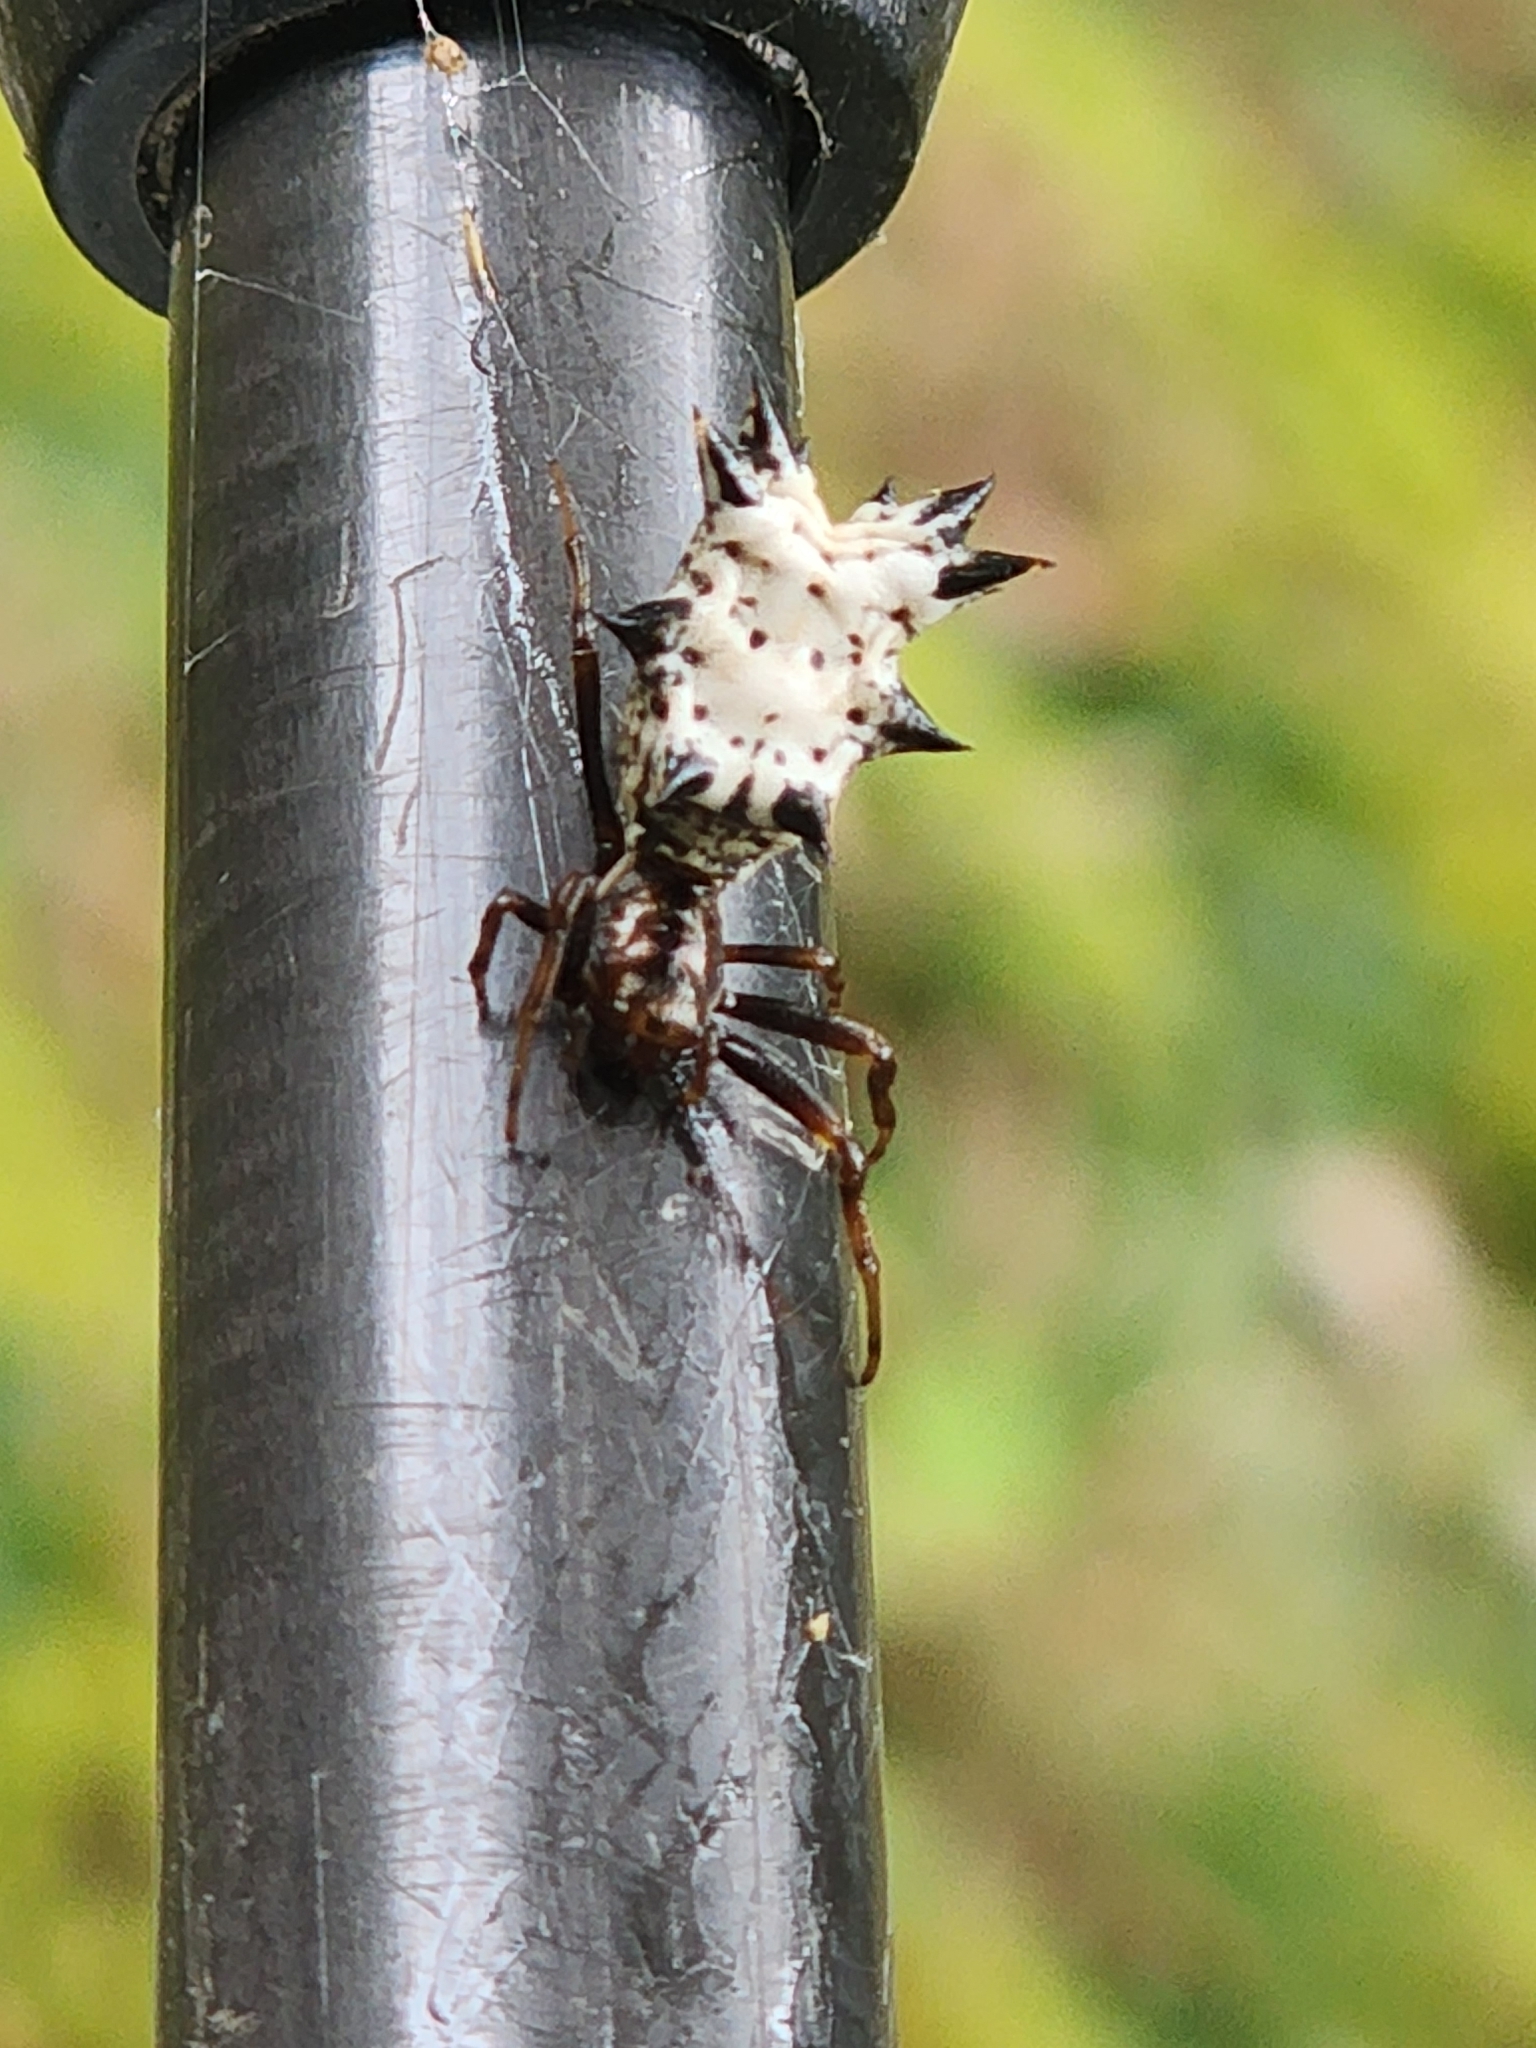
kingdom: Animalia
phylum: Arthropoda
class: Arachnida
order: Araneae
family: Araneidae
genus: Micrathena
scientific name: Micrathena gracilis
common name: Orb weavers
